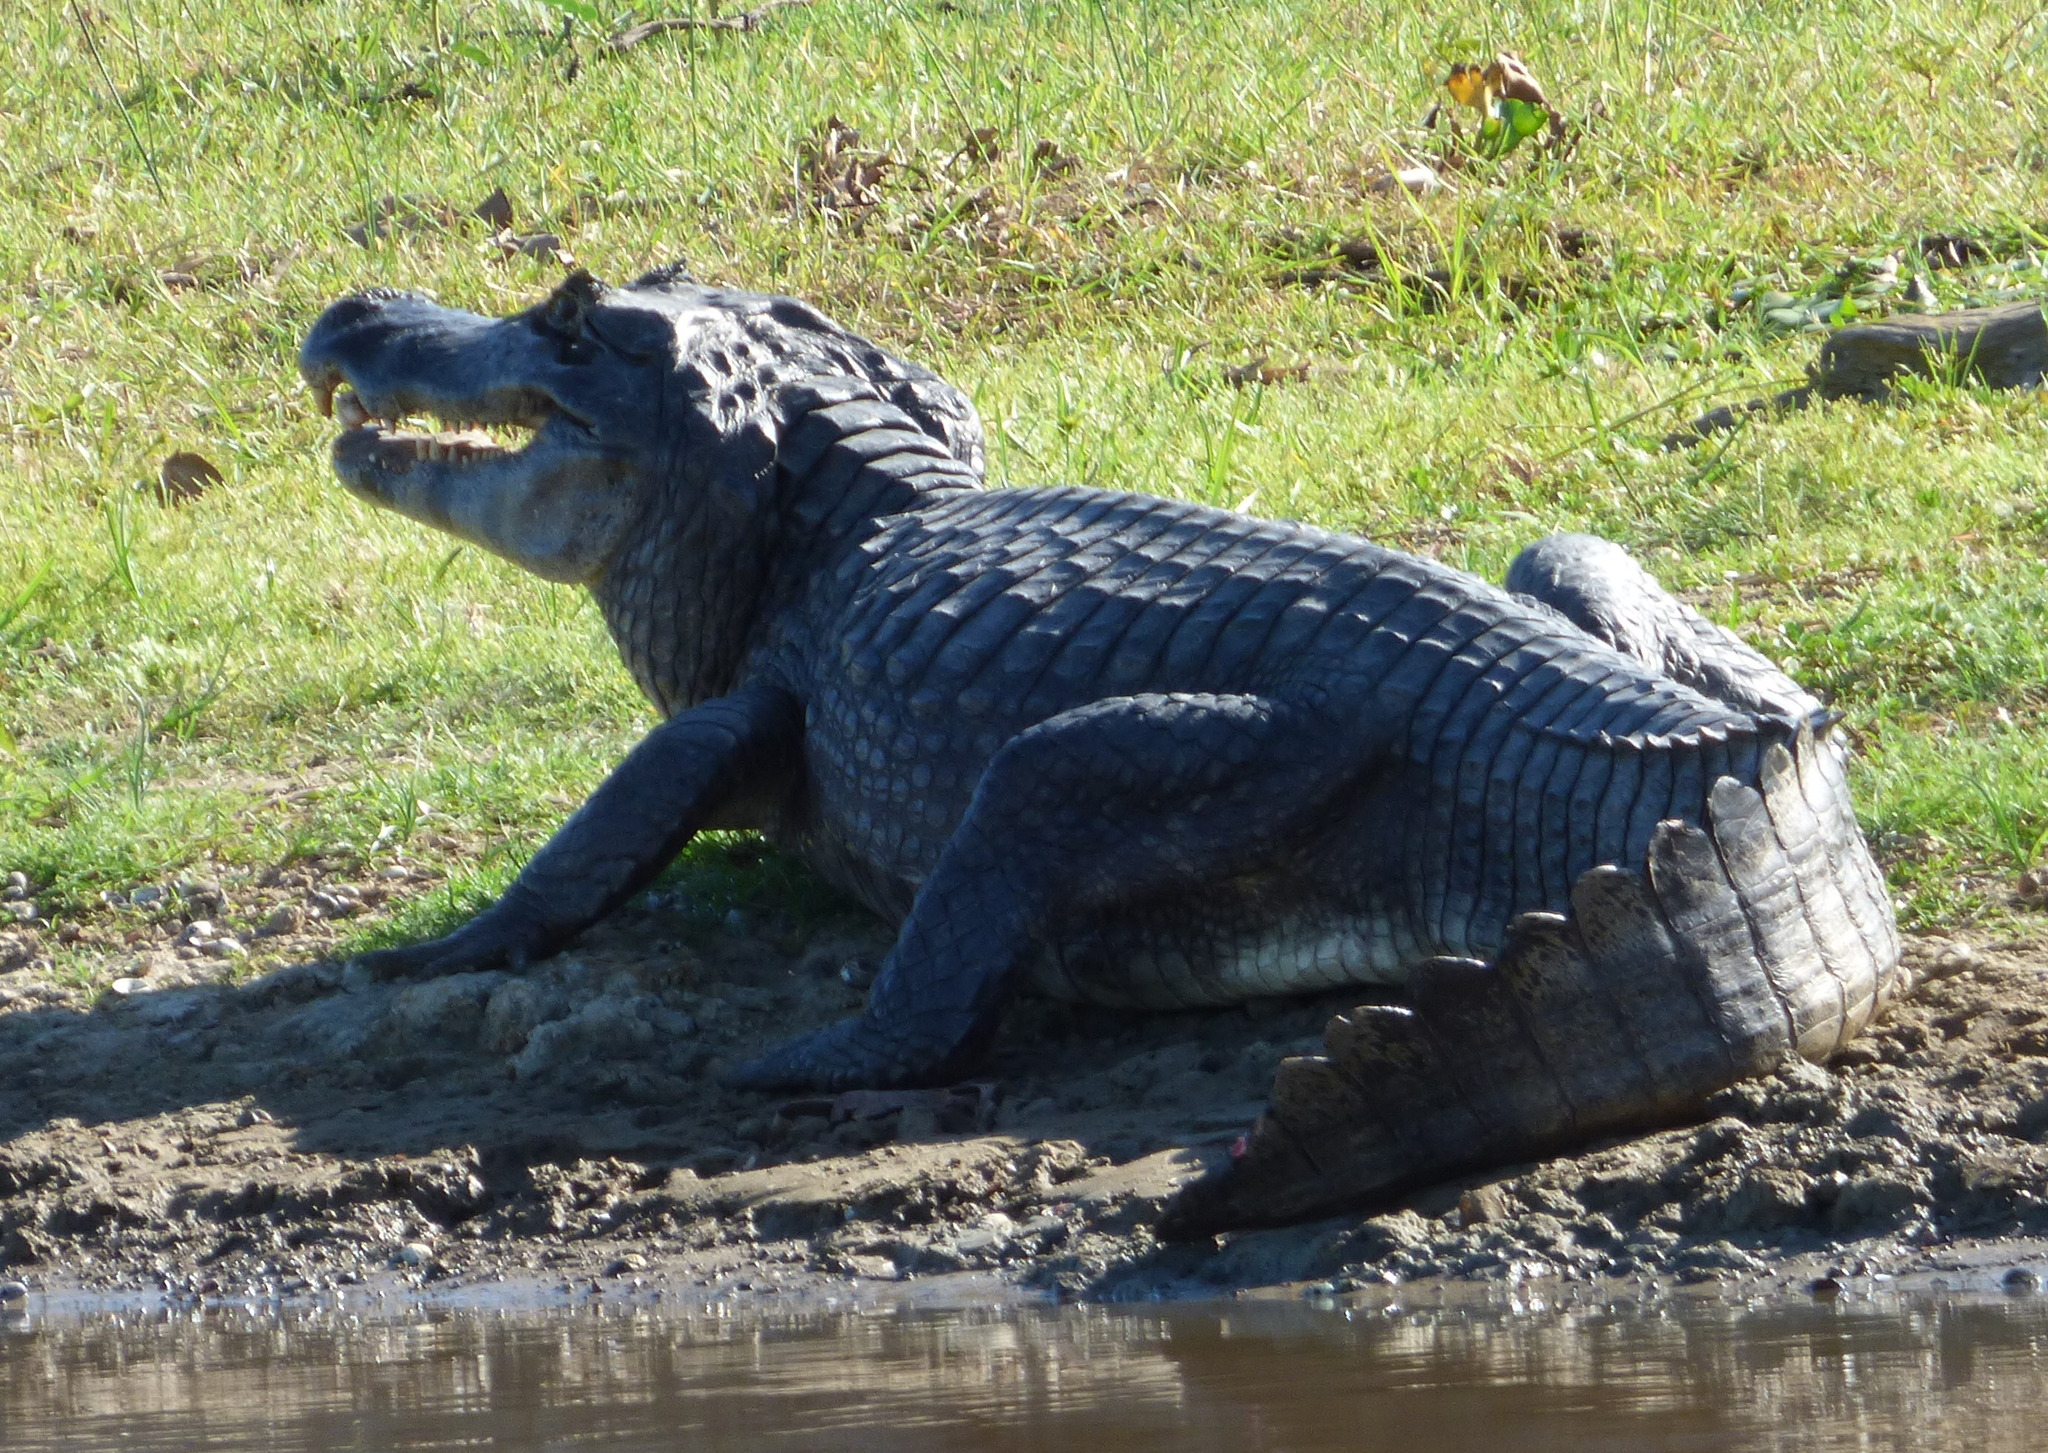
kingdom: Animalia
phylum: Chordata
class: Crocodylia
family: Alligatoridae
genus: Caiman
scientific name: Caiman yacare
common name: Yacare caiman
